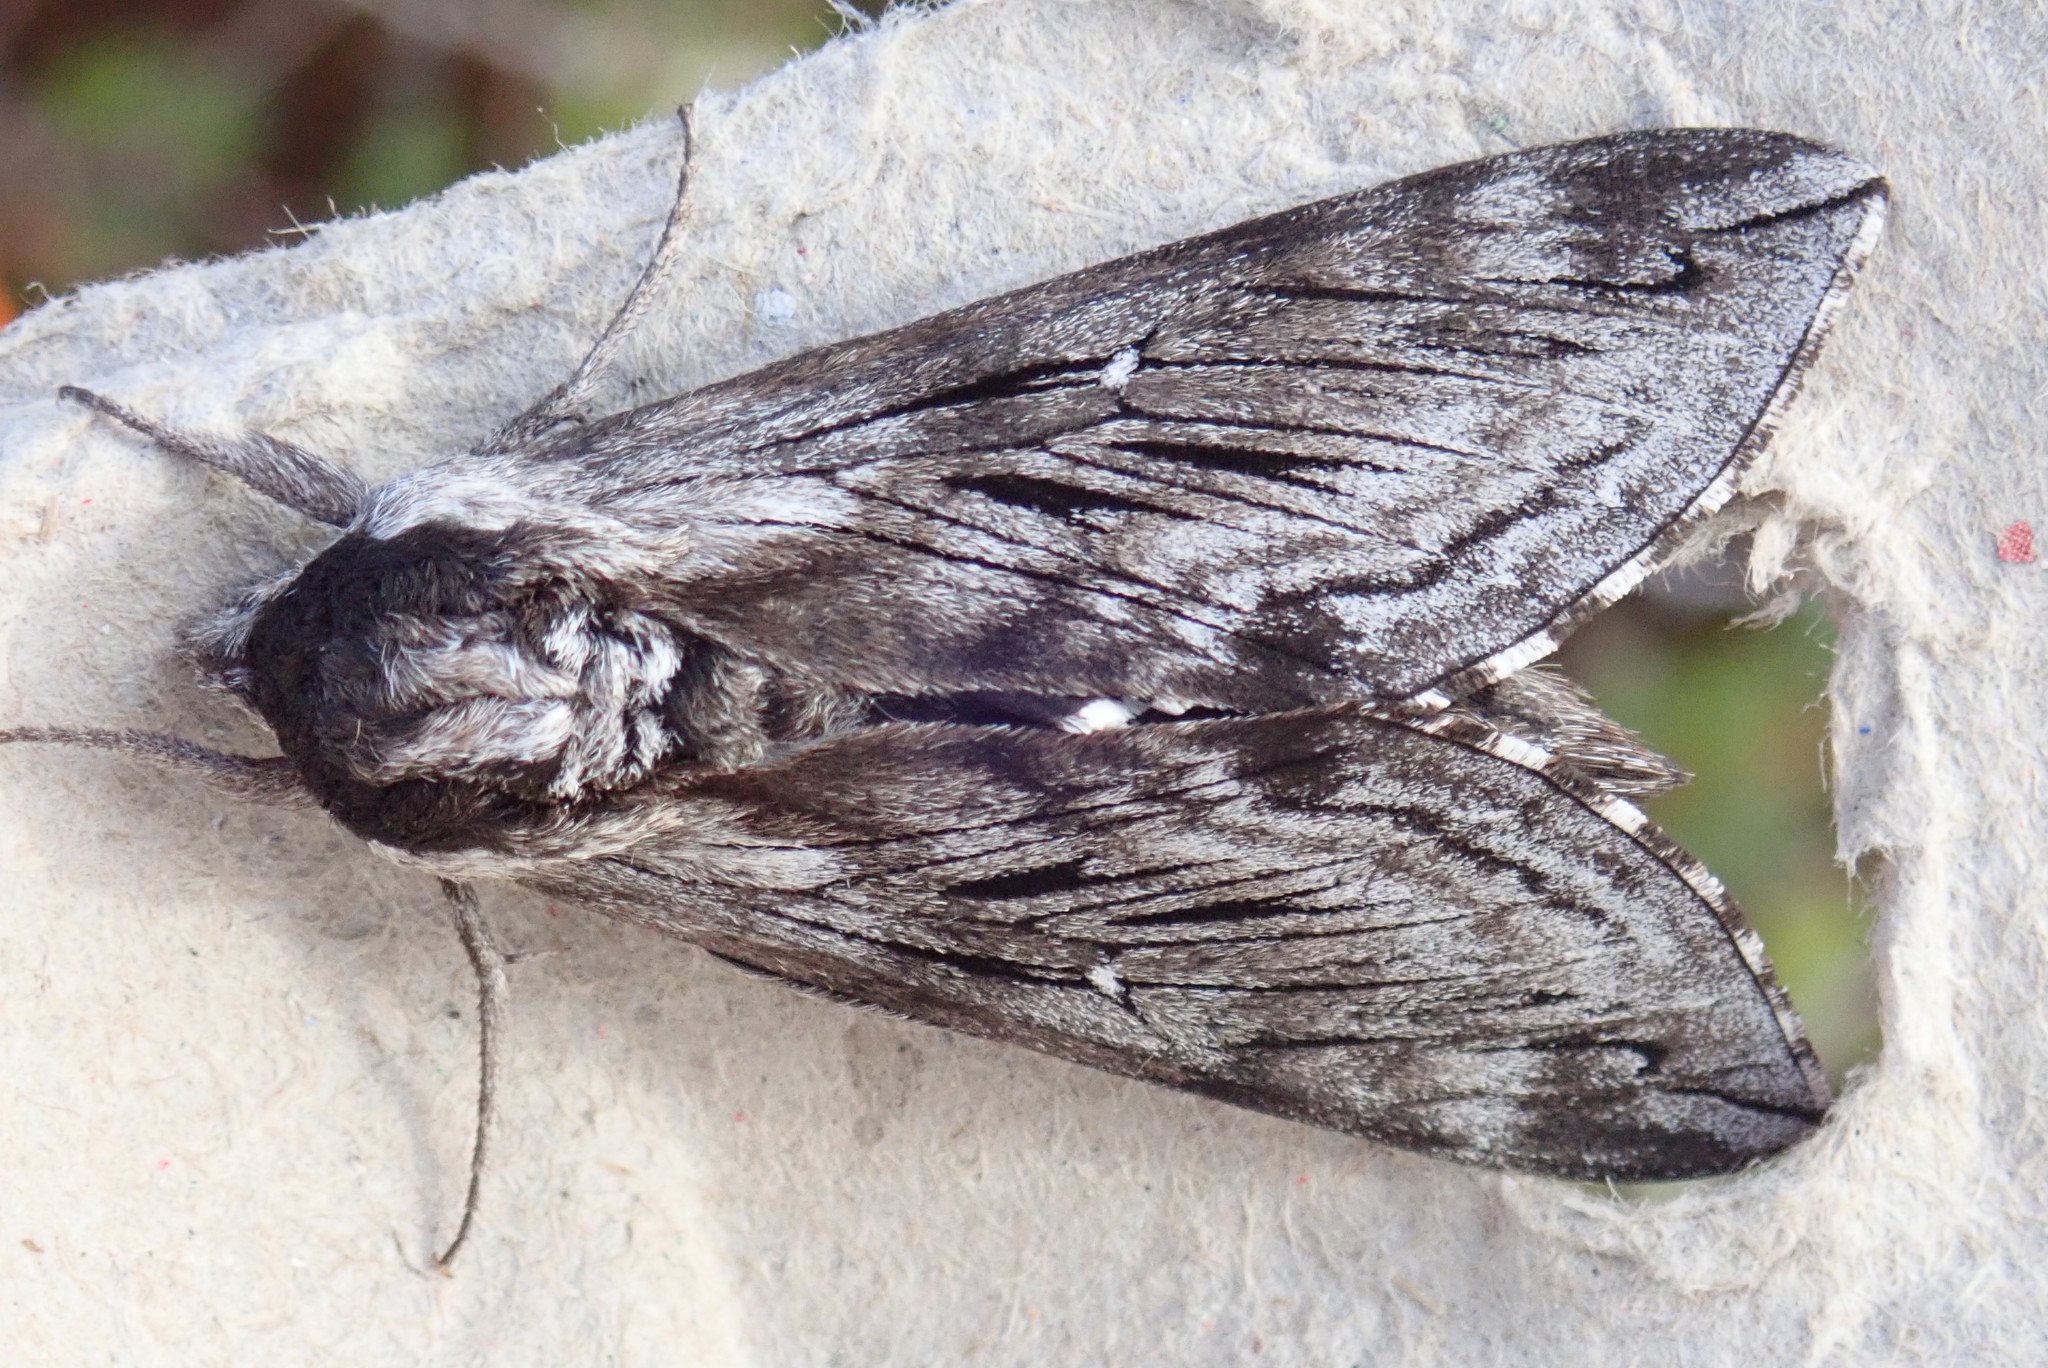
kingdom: Animalia
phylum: Arthropoda
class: Insecta
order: Lepidoptera
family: Sphingidae
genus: Sphinx
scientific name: Sphinx poecila
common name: Northern apple sphinx
